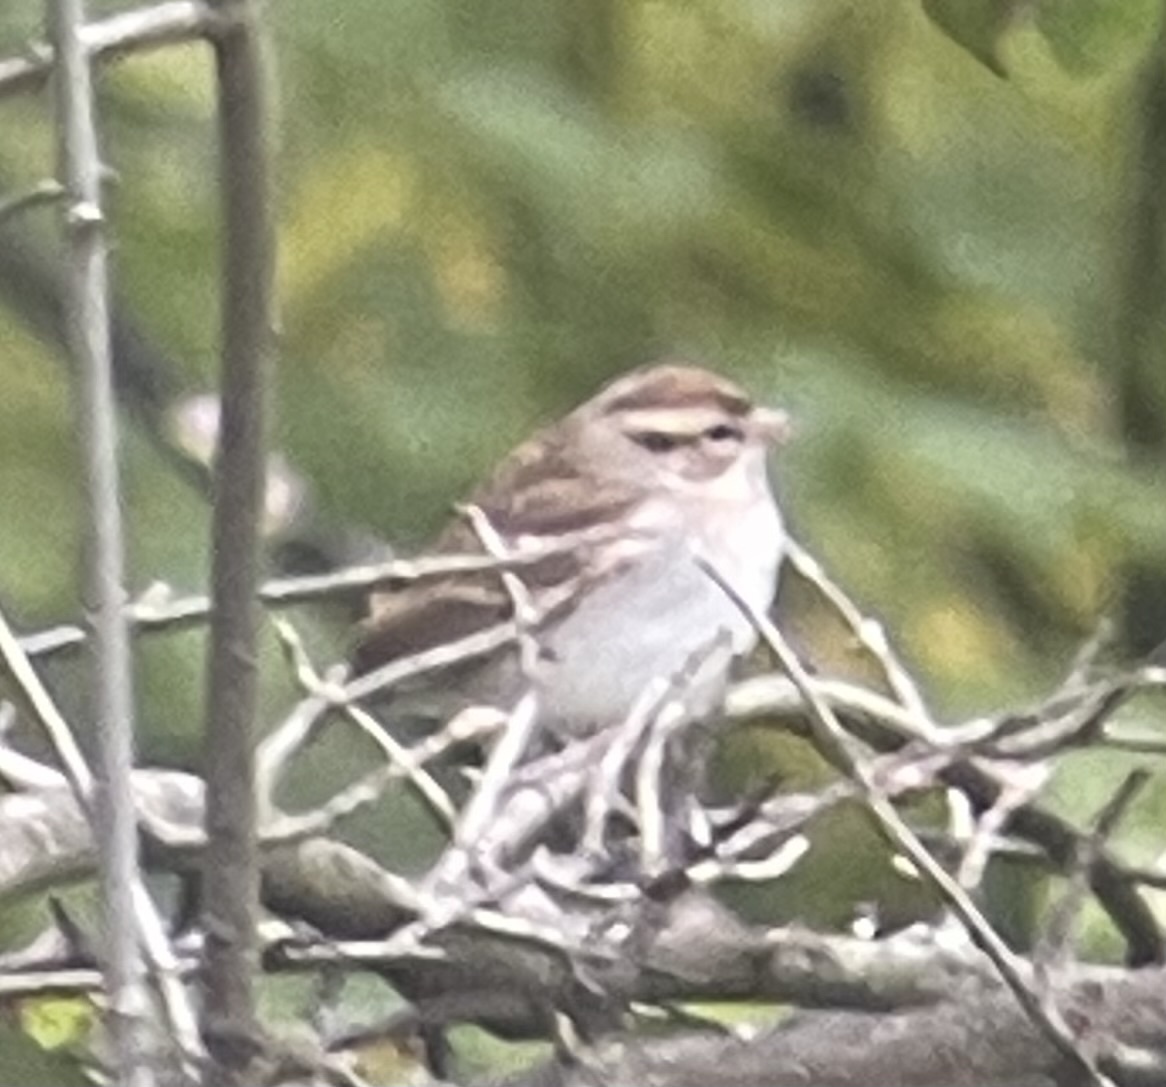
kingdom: Animalia
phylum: Chordata
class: Aves
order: Passeriformes
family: Passerellidae
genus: Spizella
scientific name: Spizella passerina
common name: Chipping sparrow
